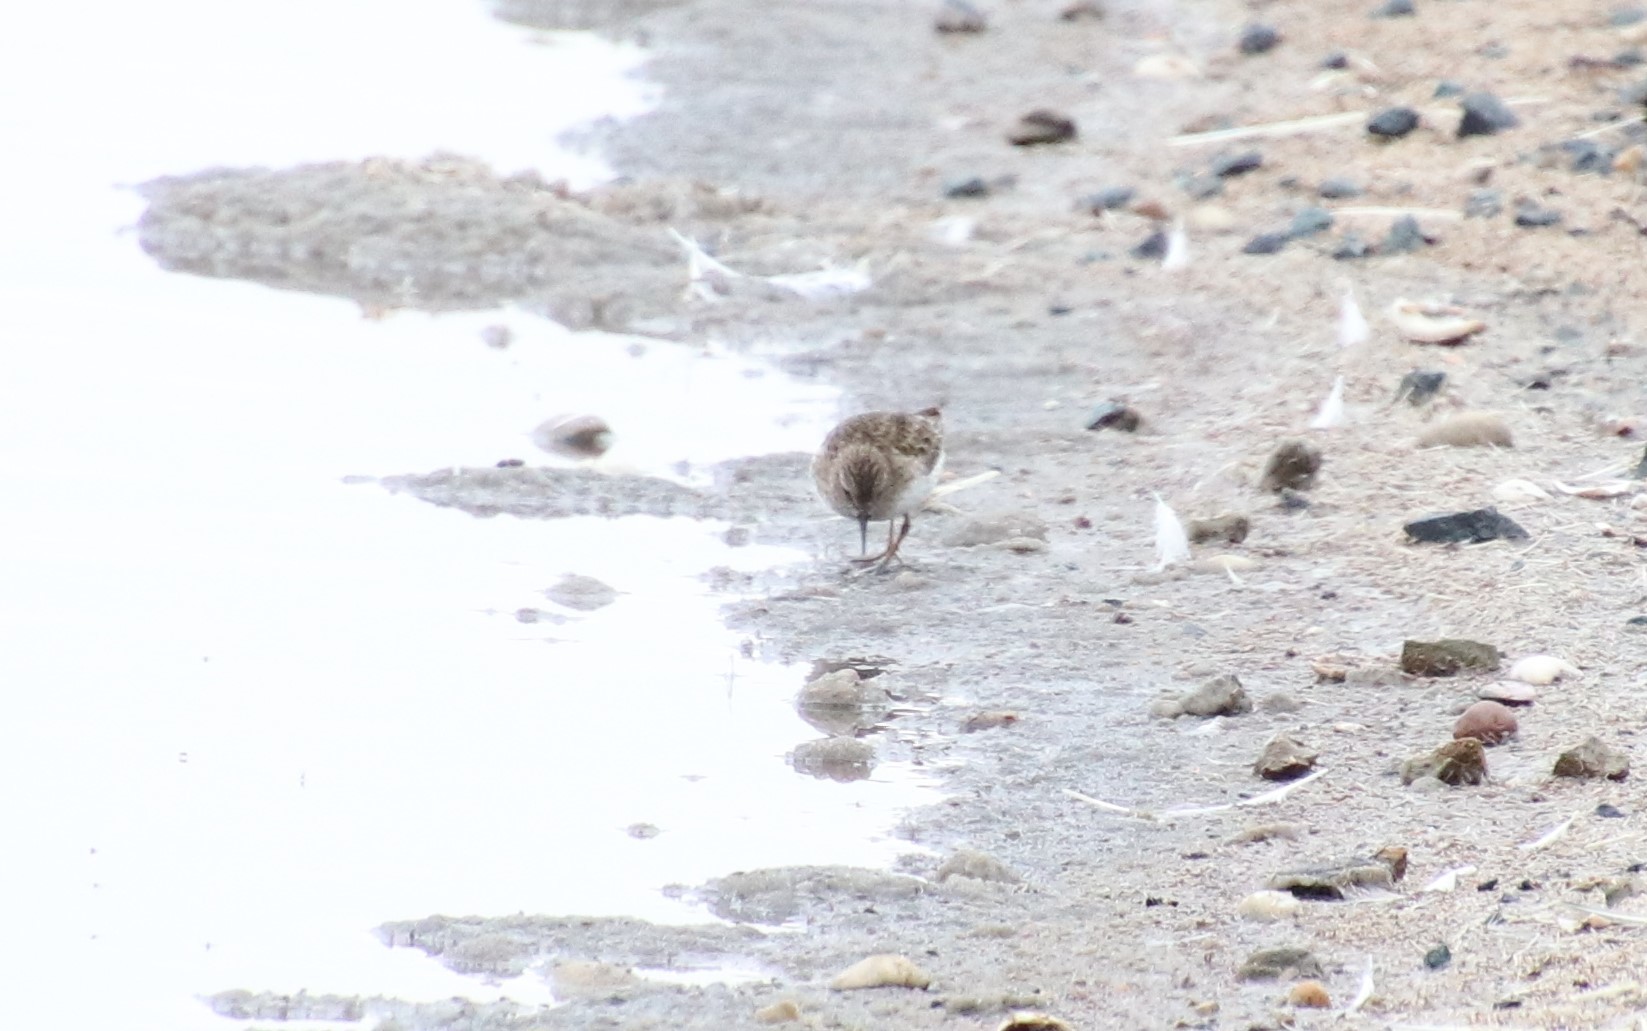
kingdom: Animalia
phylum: Chordata
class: Aves
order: Charadriiformes
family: Scolopacidae
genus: Calidris
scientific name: Calidris minutilla
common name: Least sandpiper
